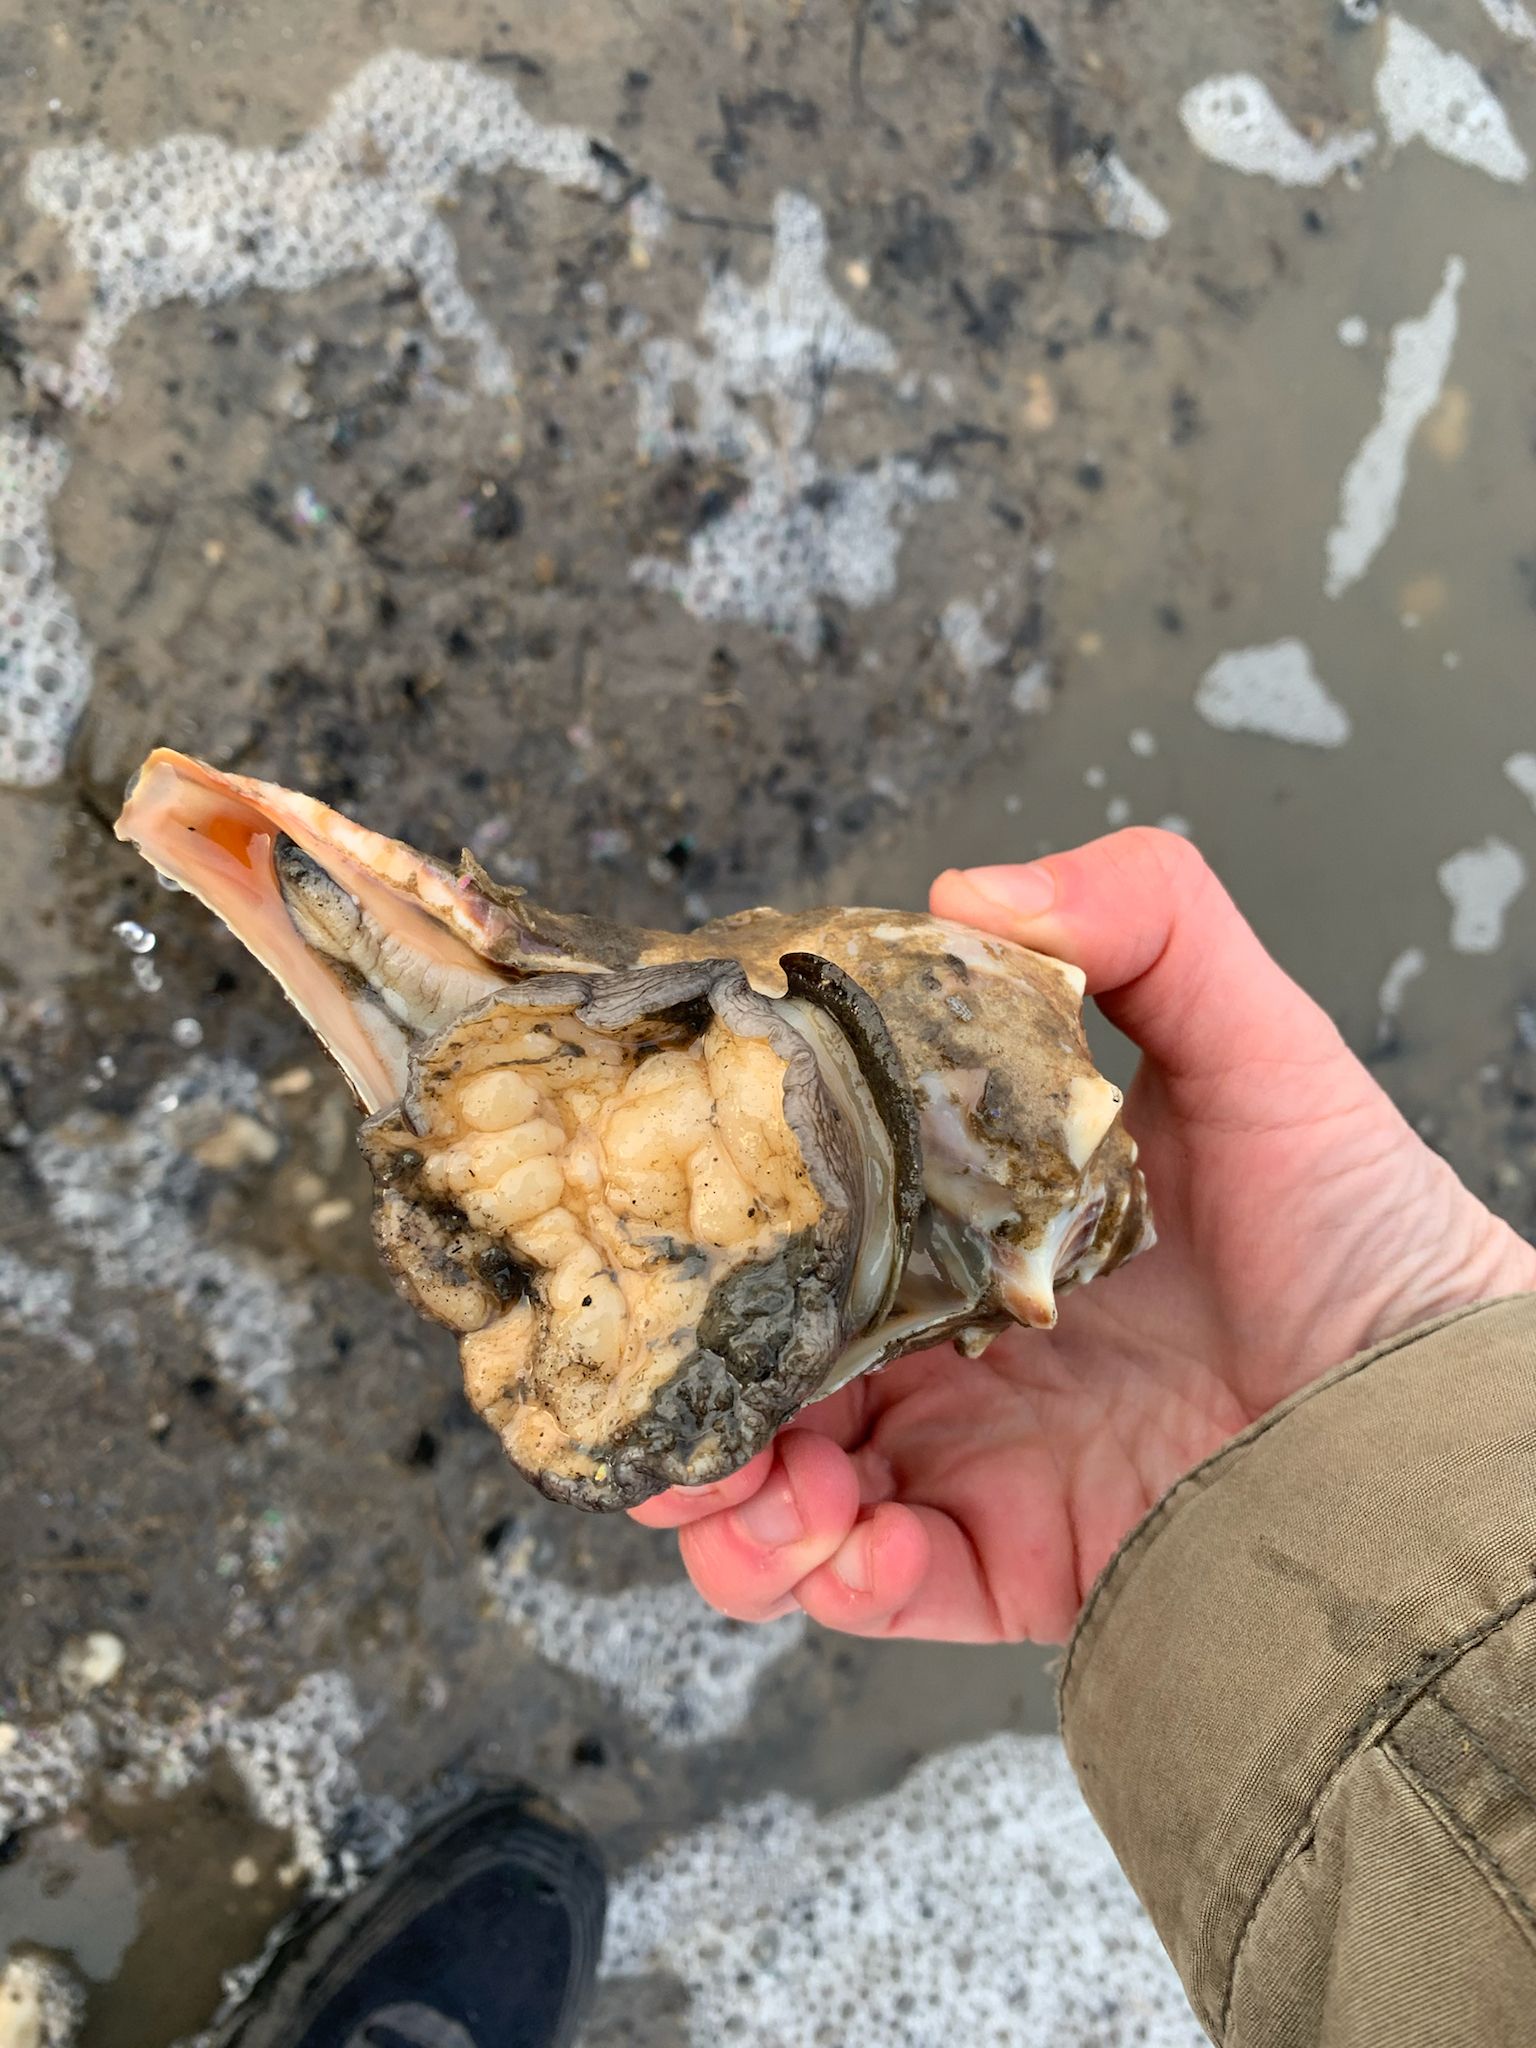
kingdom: Animalia
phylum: Mollusca
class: Gastropoda
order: Neogastropoda
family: Busyconidae
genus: Busycon
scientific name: Busycon carica
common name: Knobbed whelk
